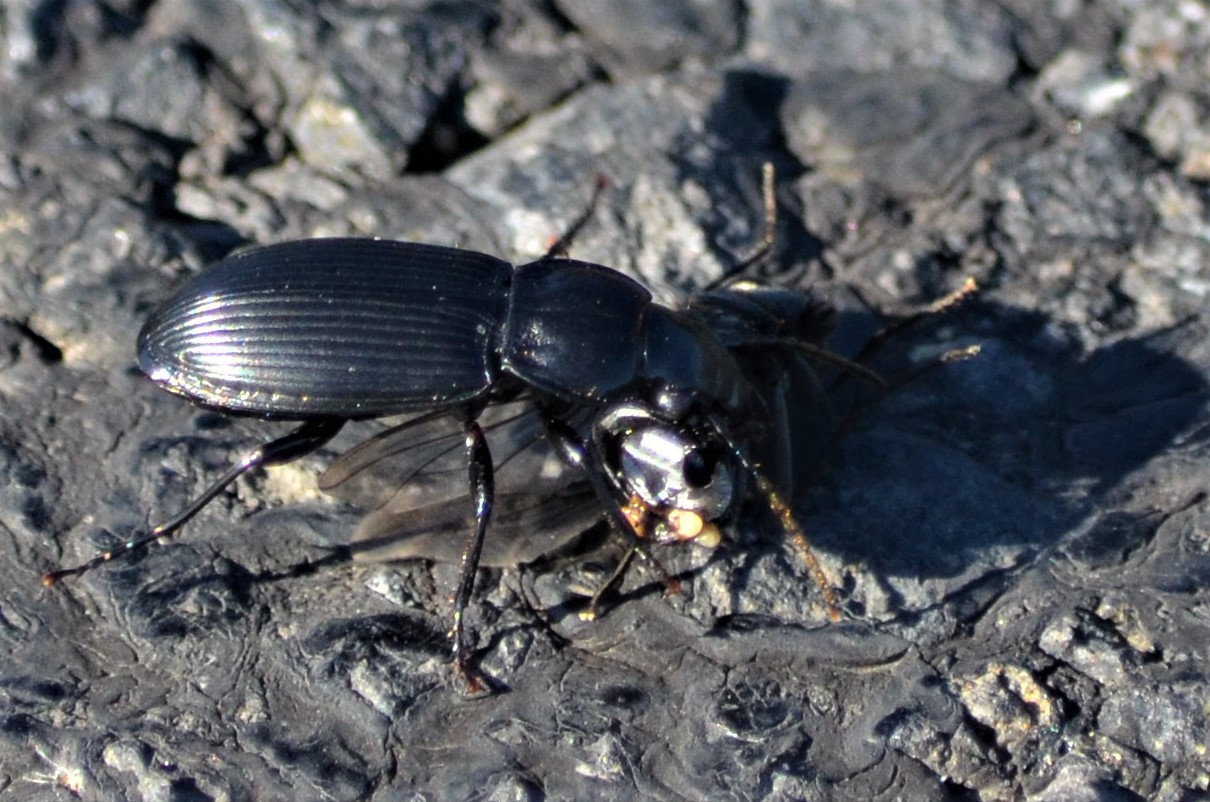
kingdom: Animalia
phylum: Arthropoda
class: Insecta
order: Coleoptera
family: Carabidae
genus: Pterostichus
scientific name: Pterostichus melanarius
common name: European dark harp ground beetle
